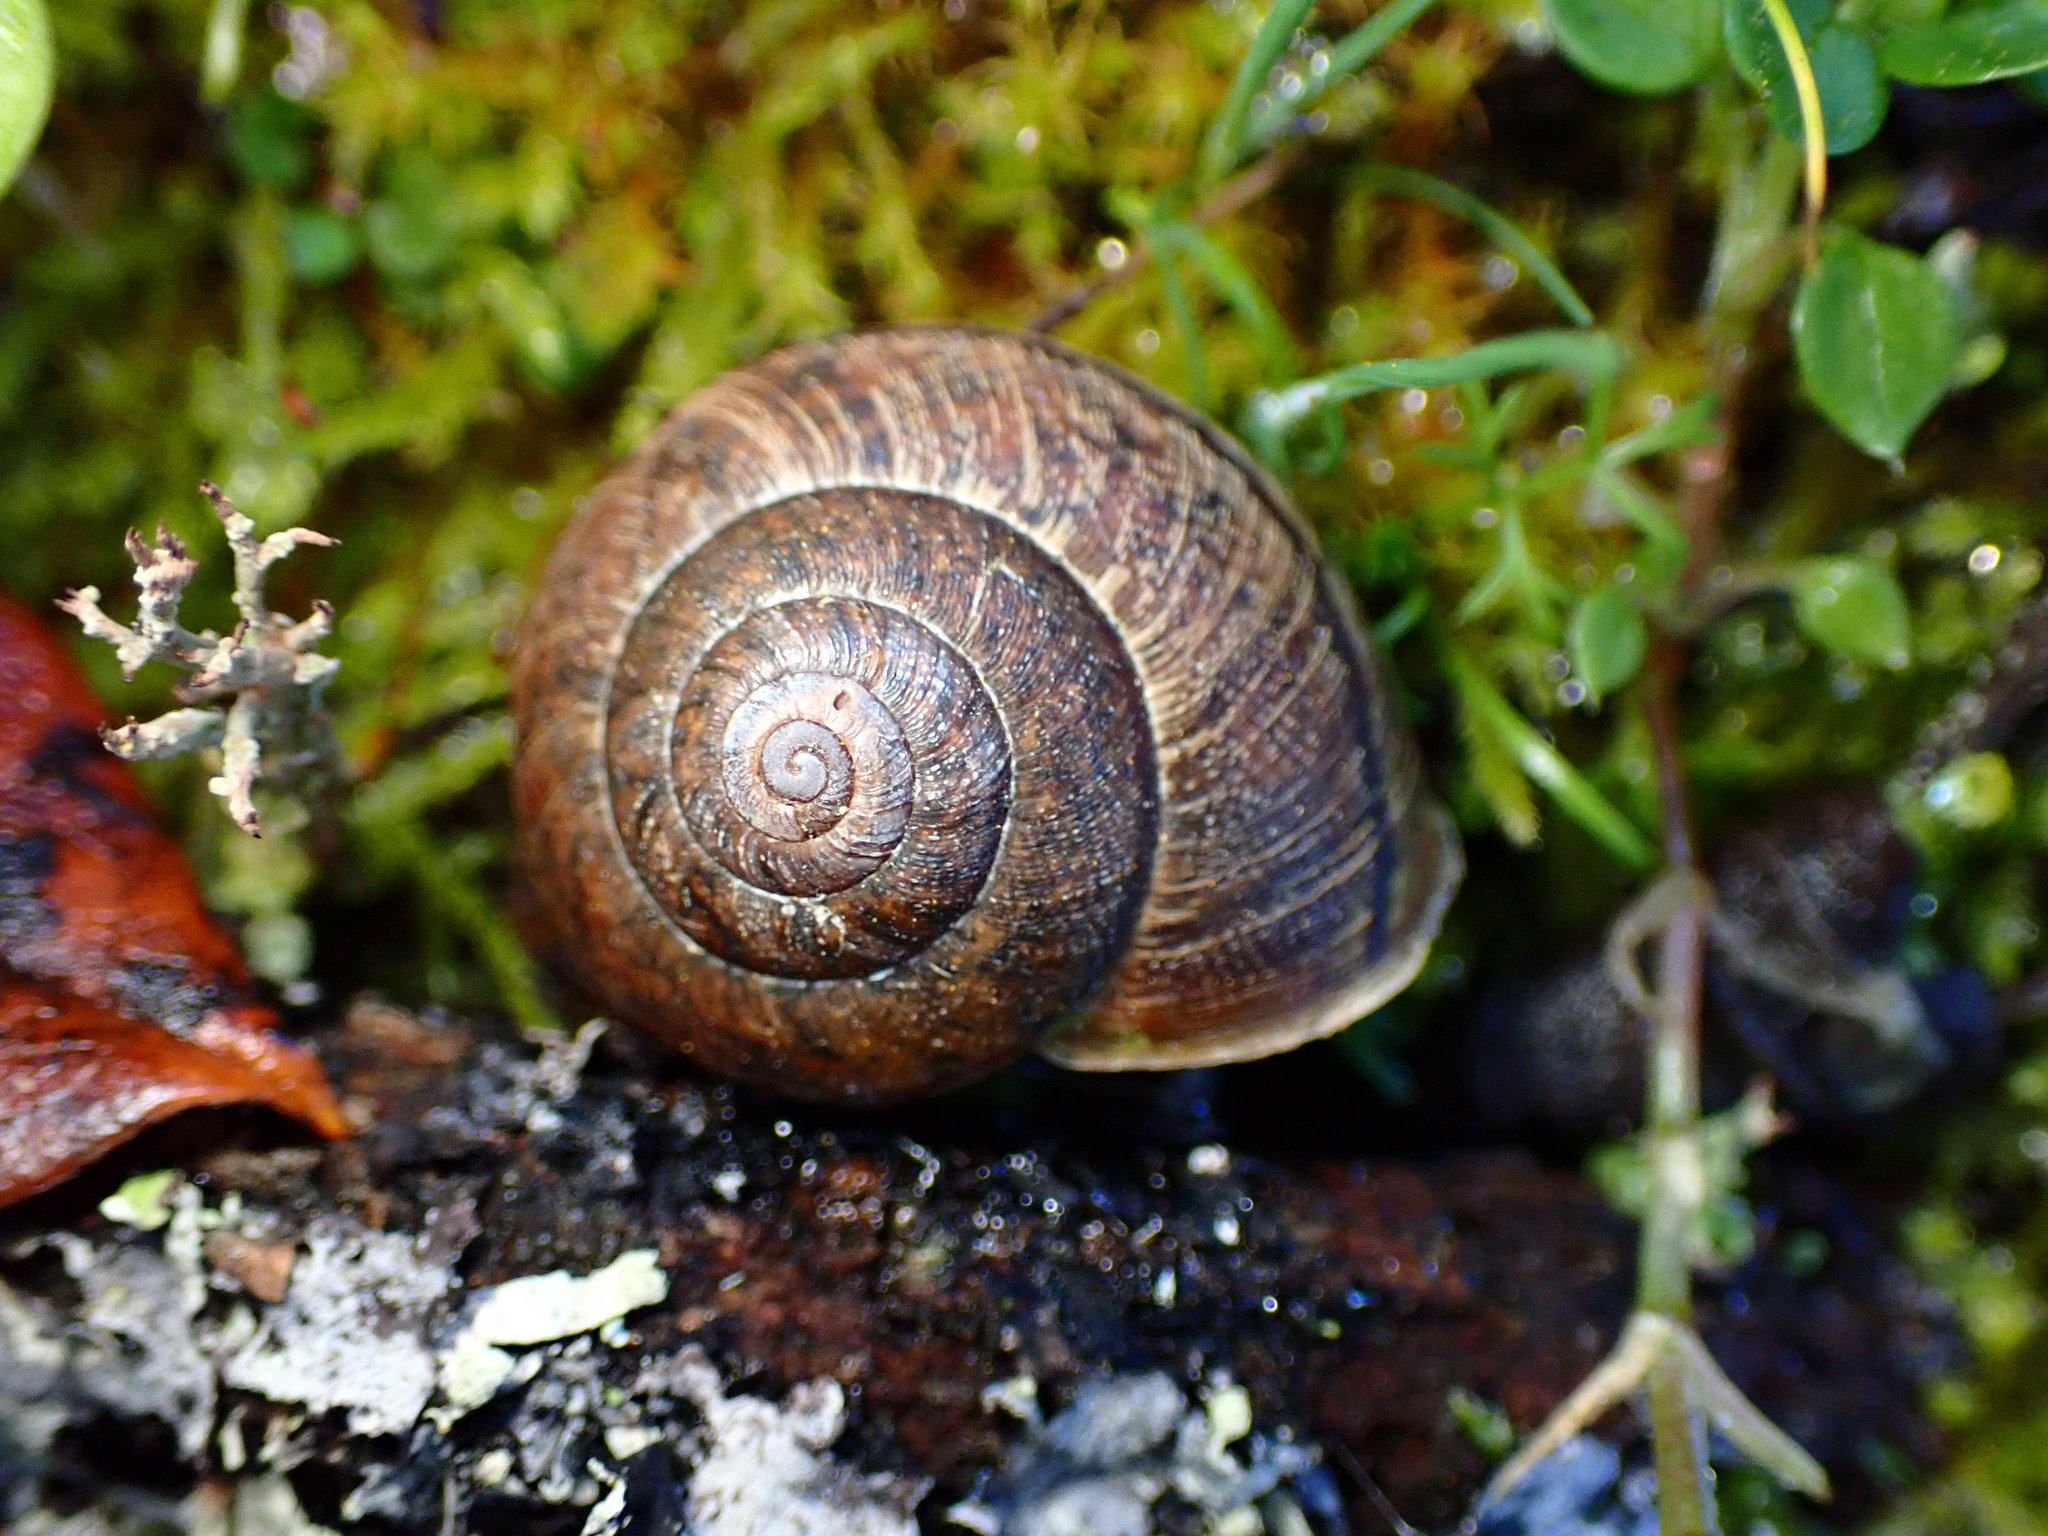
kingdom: Animalia
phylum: Mollusca
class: Gastropoda
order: Stylommatophora
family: Xanthonychidae
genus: Helminthoglypta
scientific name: Helminthoglypta nickliniana
